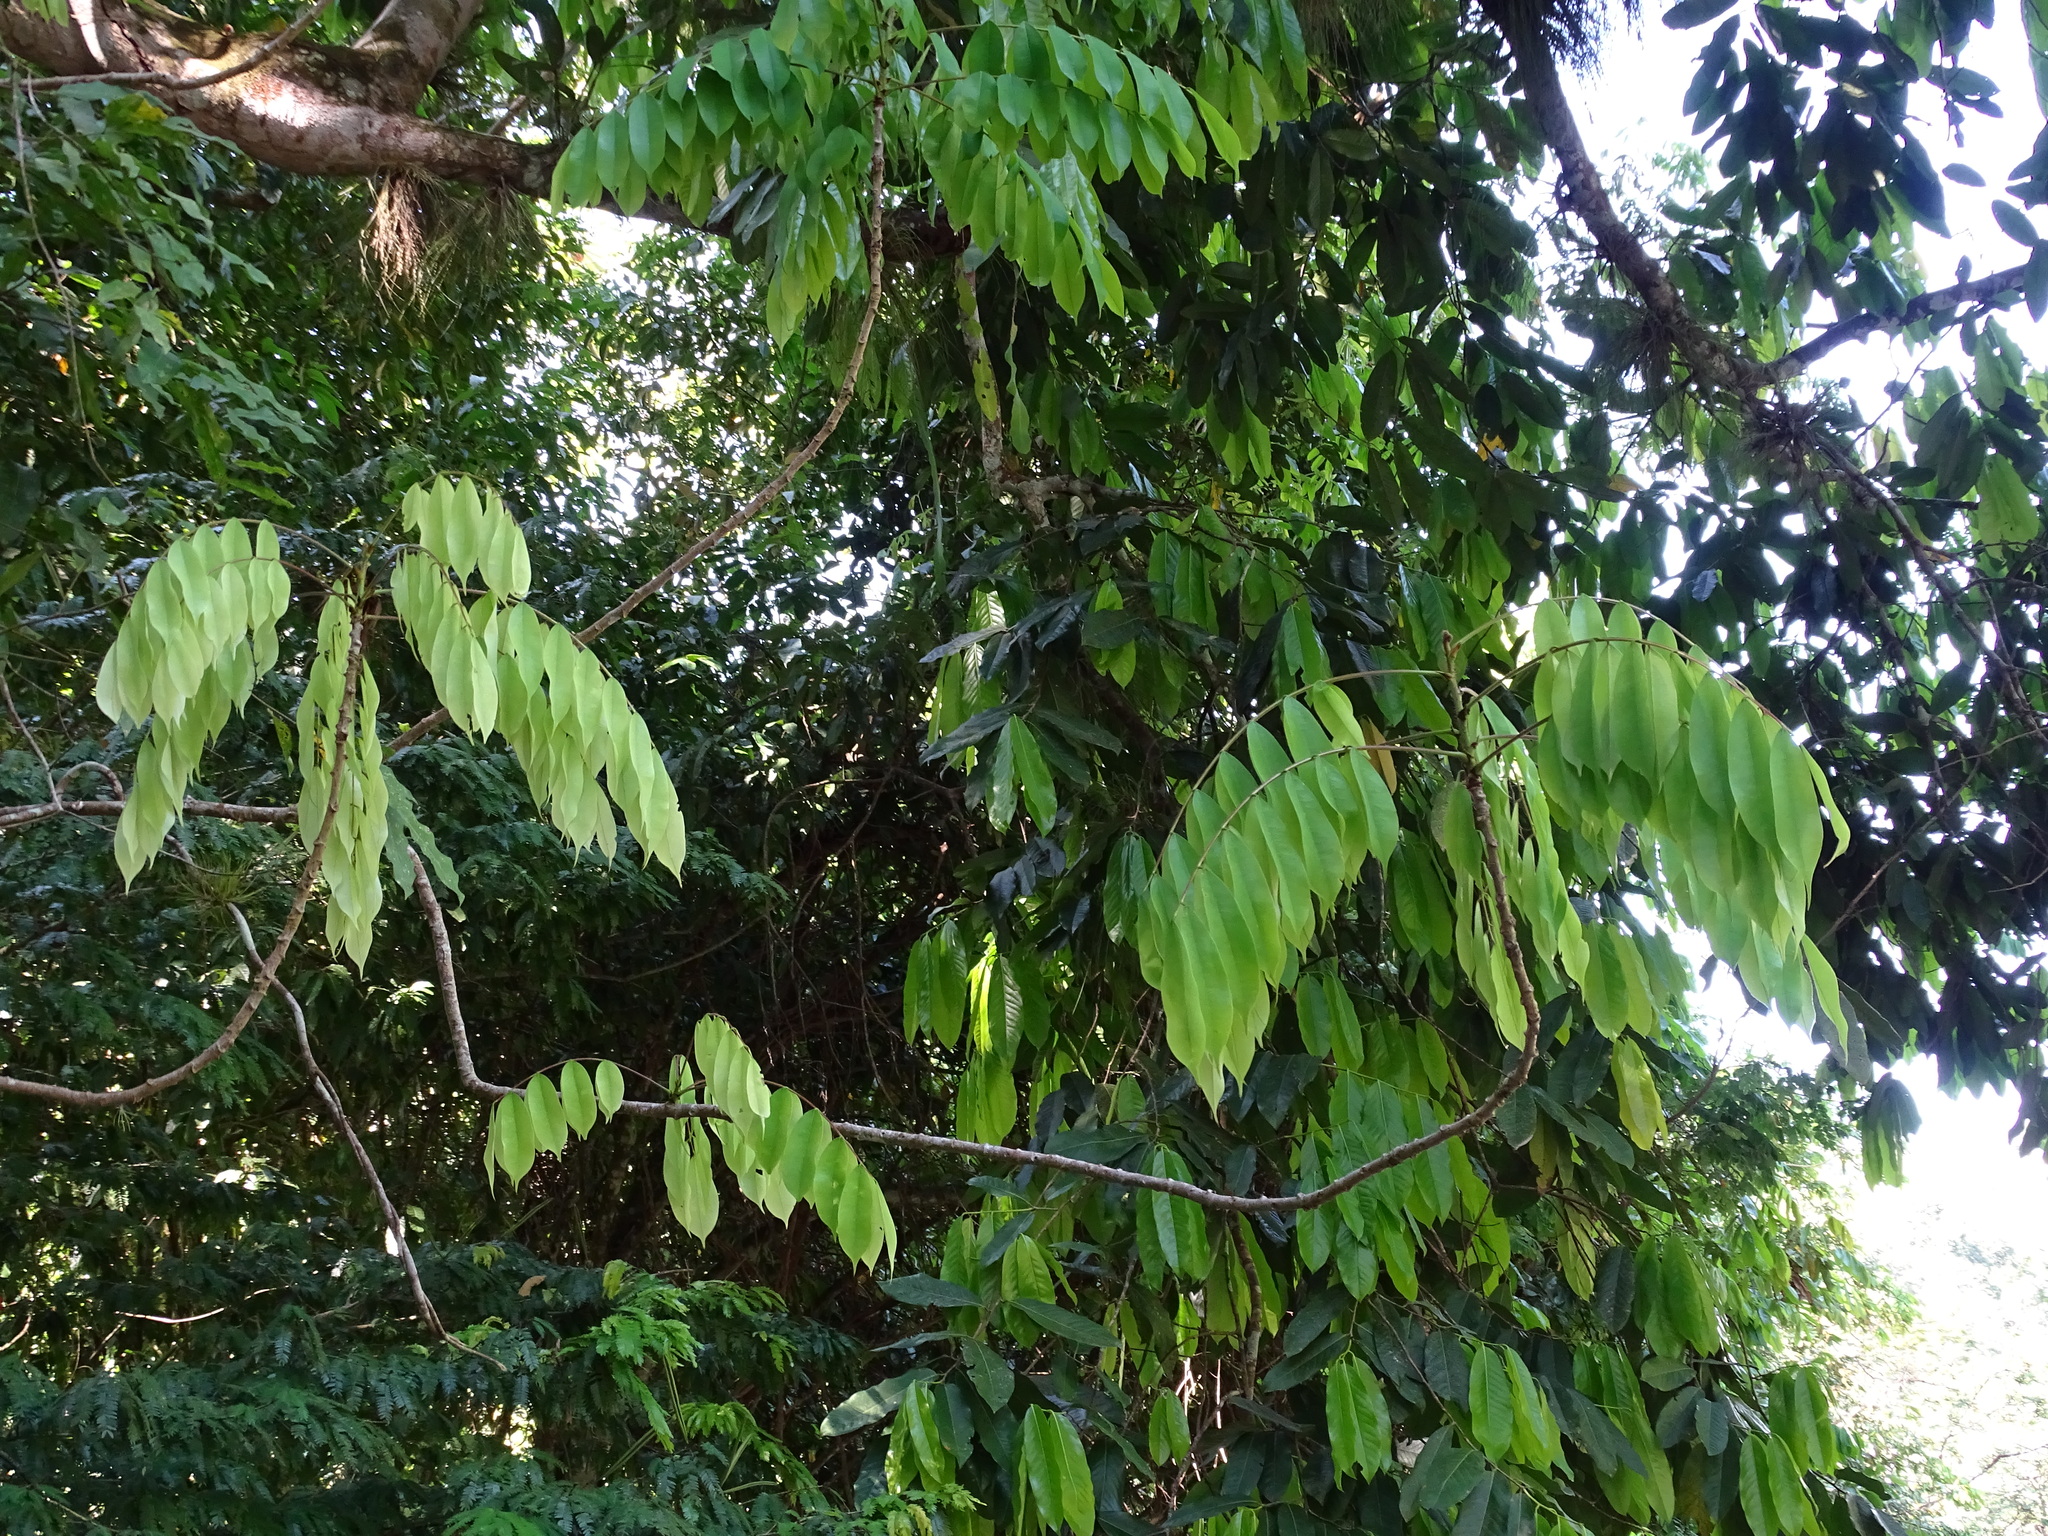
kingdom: Plantae
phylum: Tracheophyta
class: Magnoliopsida
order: Fabales
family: Fabaceae
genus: Machaerium
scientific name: Machaerium kegelii
